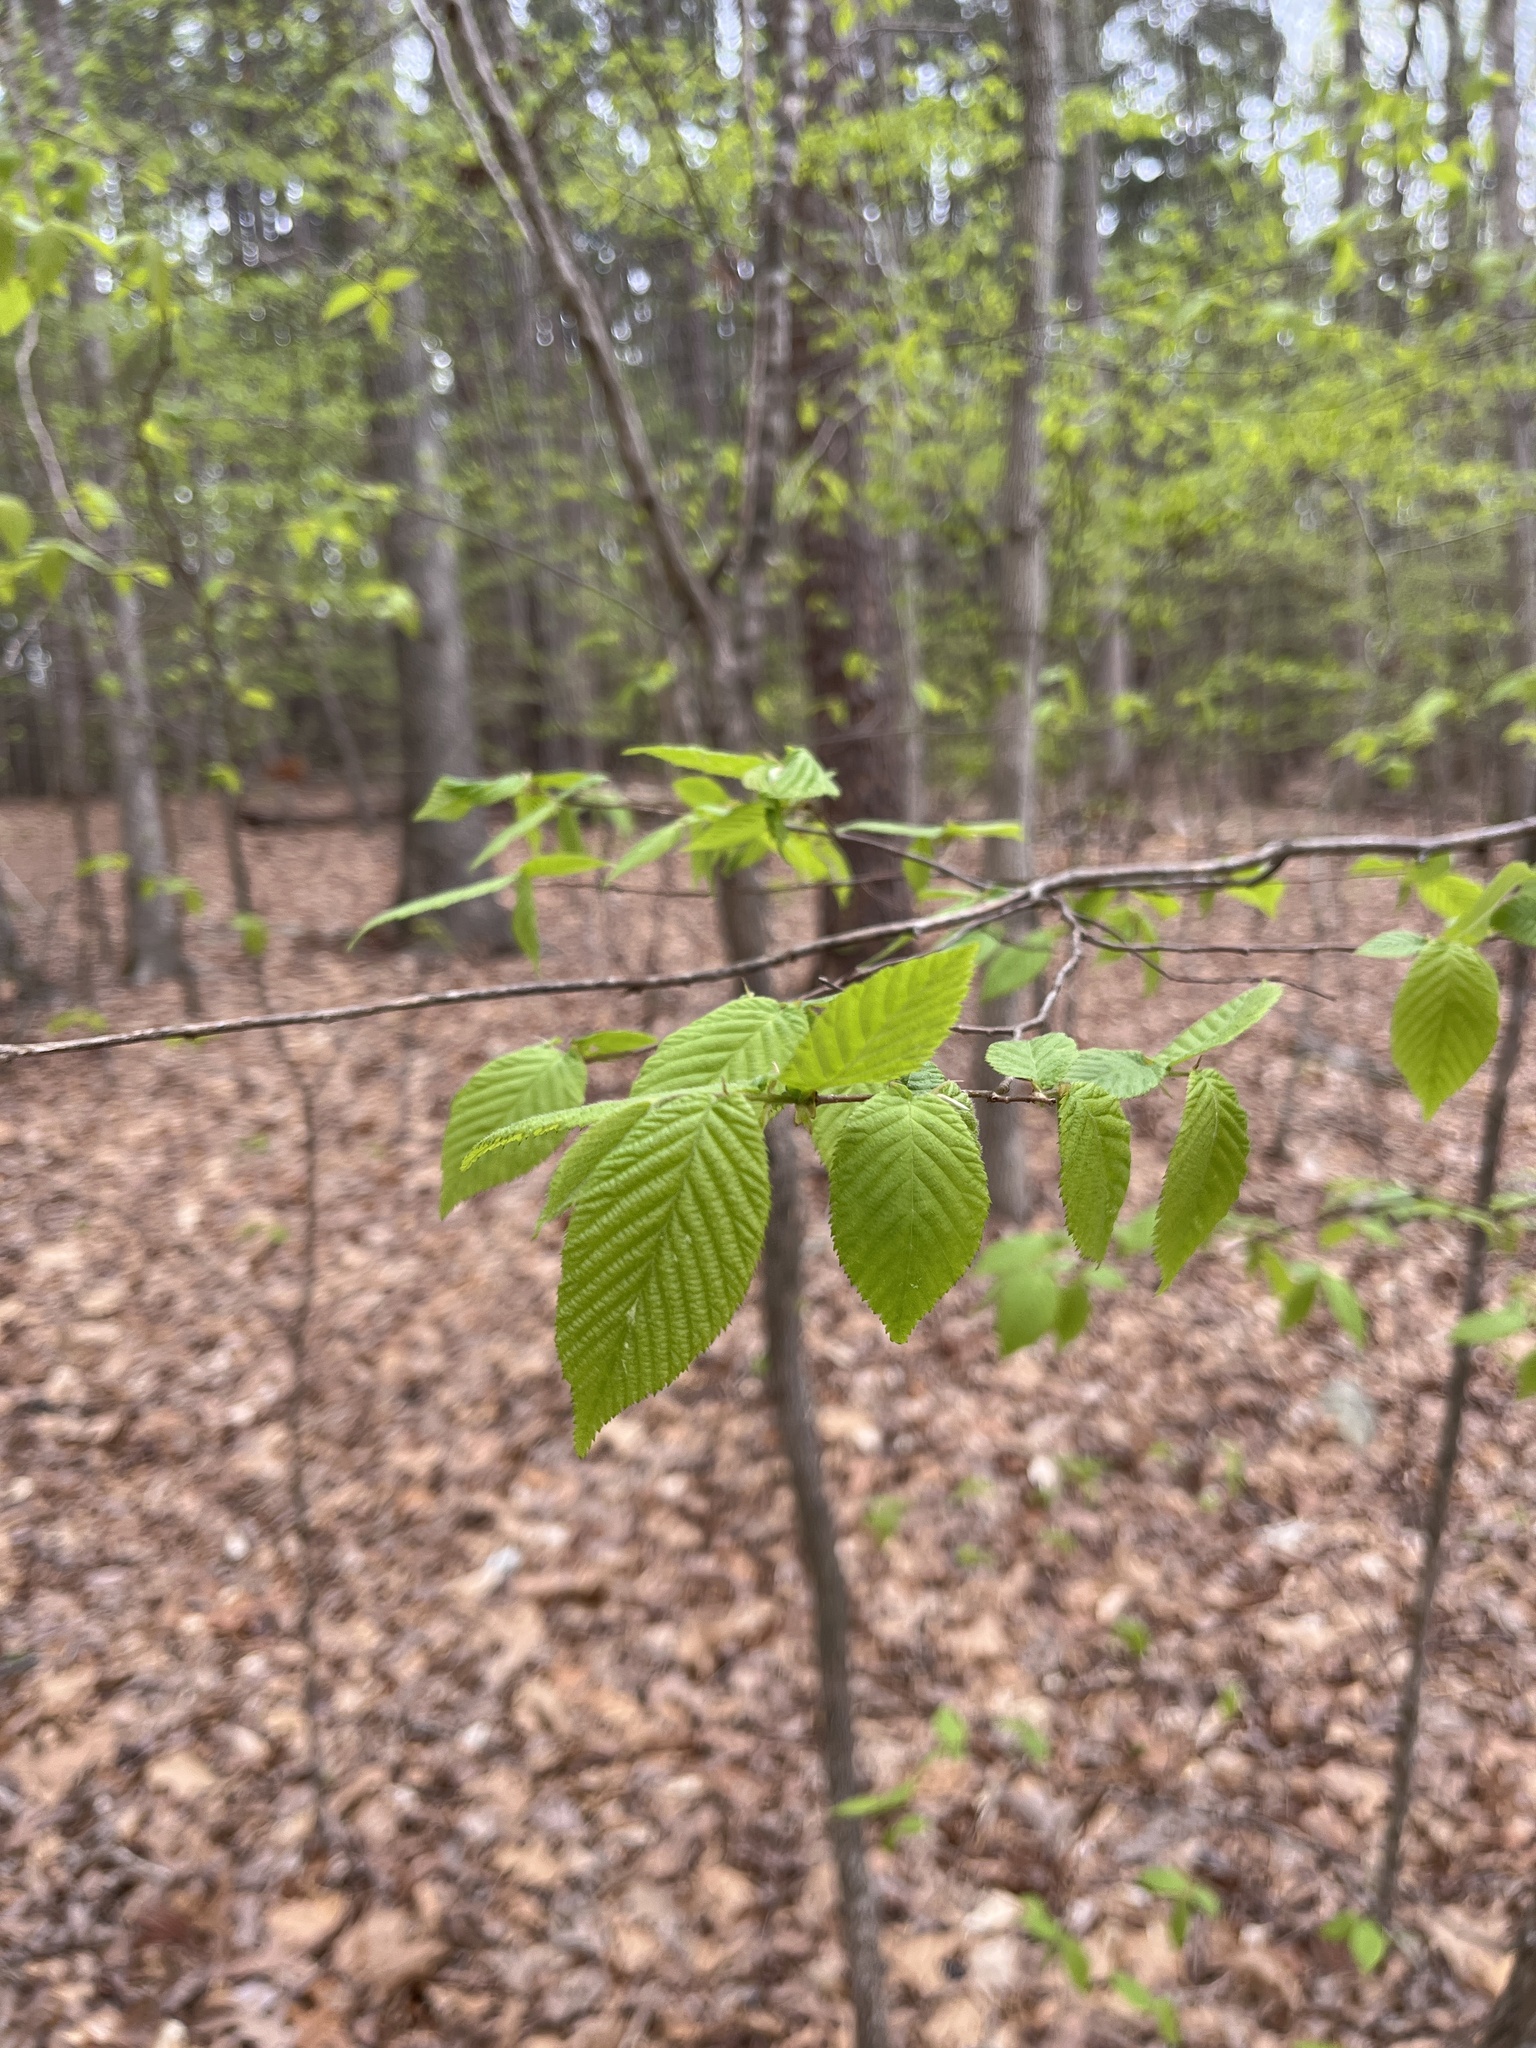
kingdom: Plantae
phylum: Tracheophyta
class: Magnoliopsida
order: Fagales
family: Fagaceae
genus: Fagus
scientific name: Fagus grandifolia
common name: American beech
